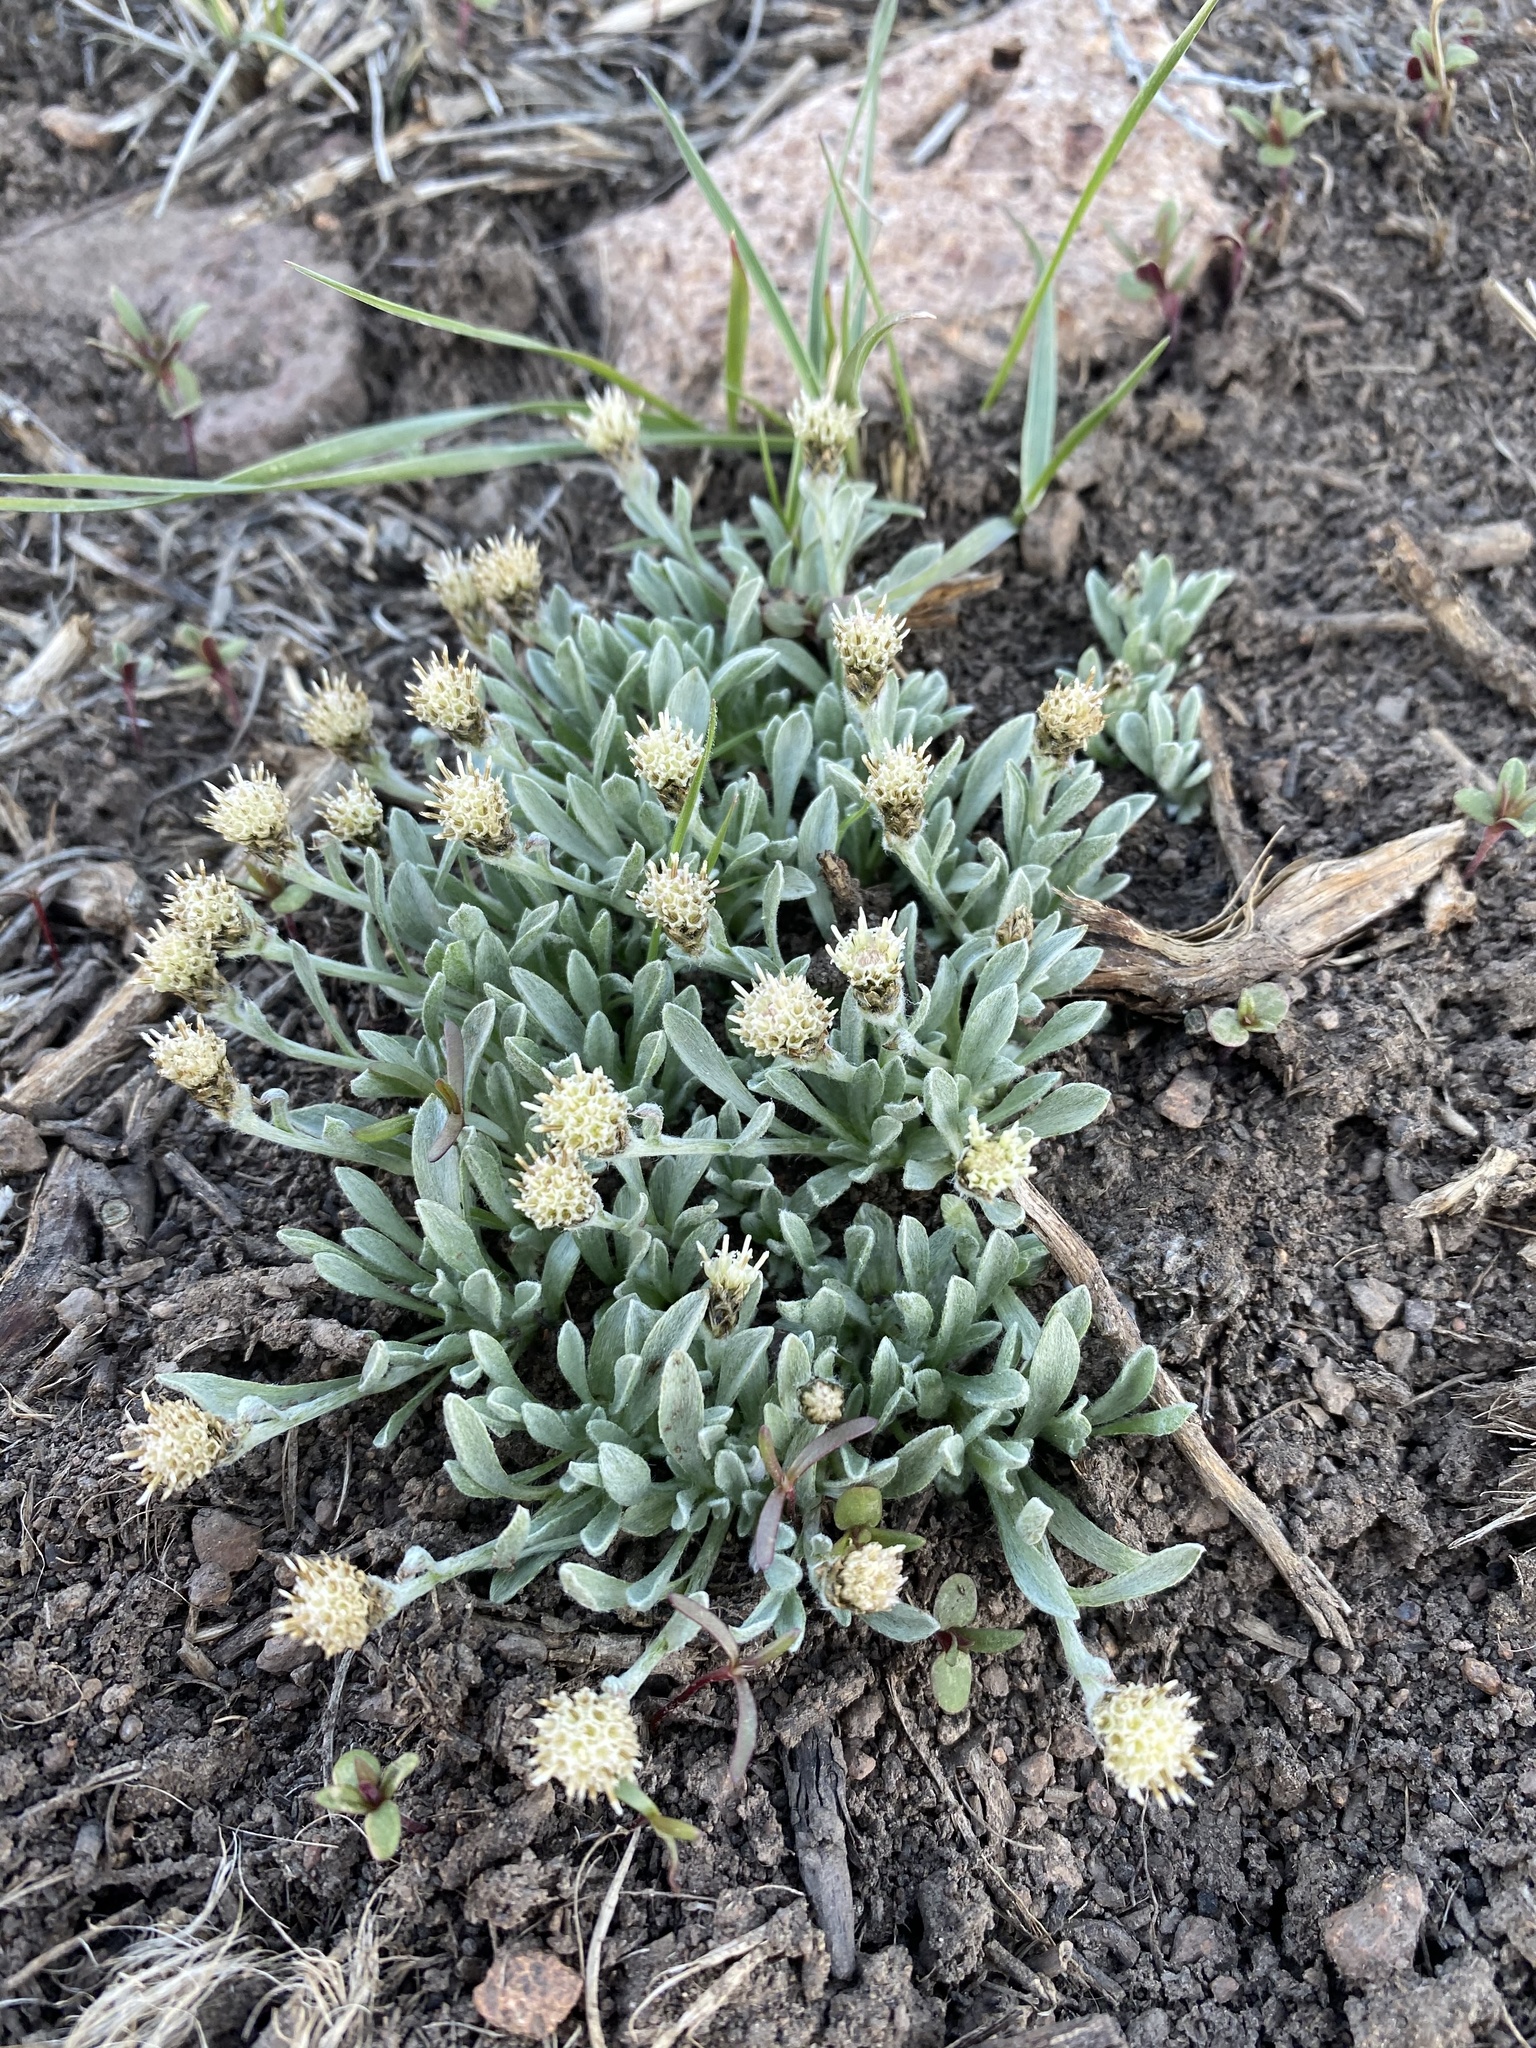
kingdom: Plantae
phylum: Tracheophyta
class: Magnoliopsida
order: Asterales
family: Asteraceae
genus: Antennaria
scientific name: Antennaria dimorpha
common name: Cushion pussytoes
